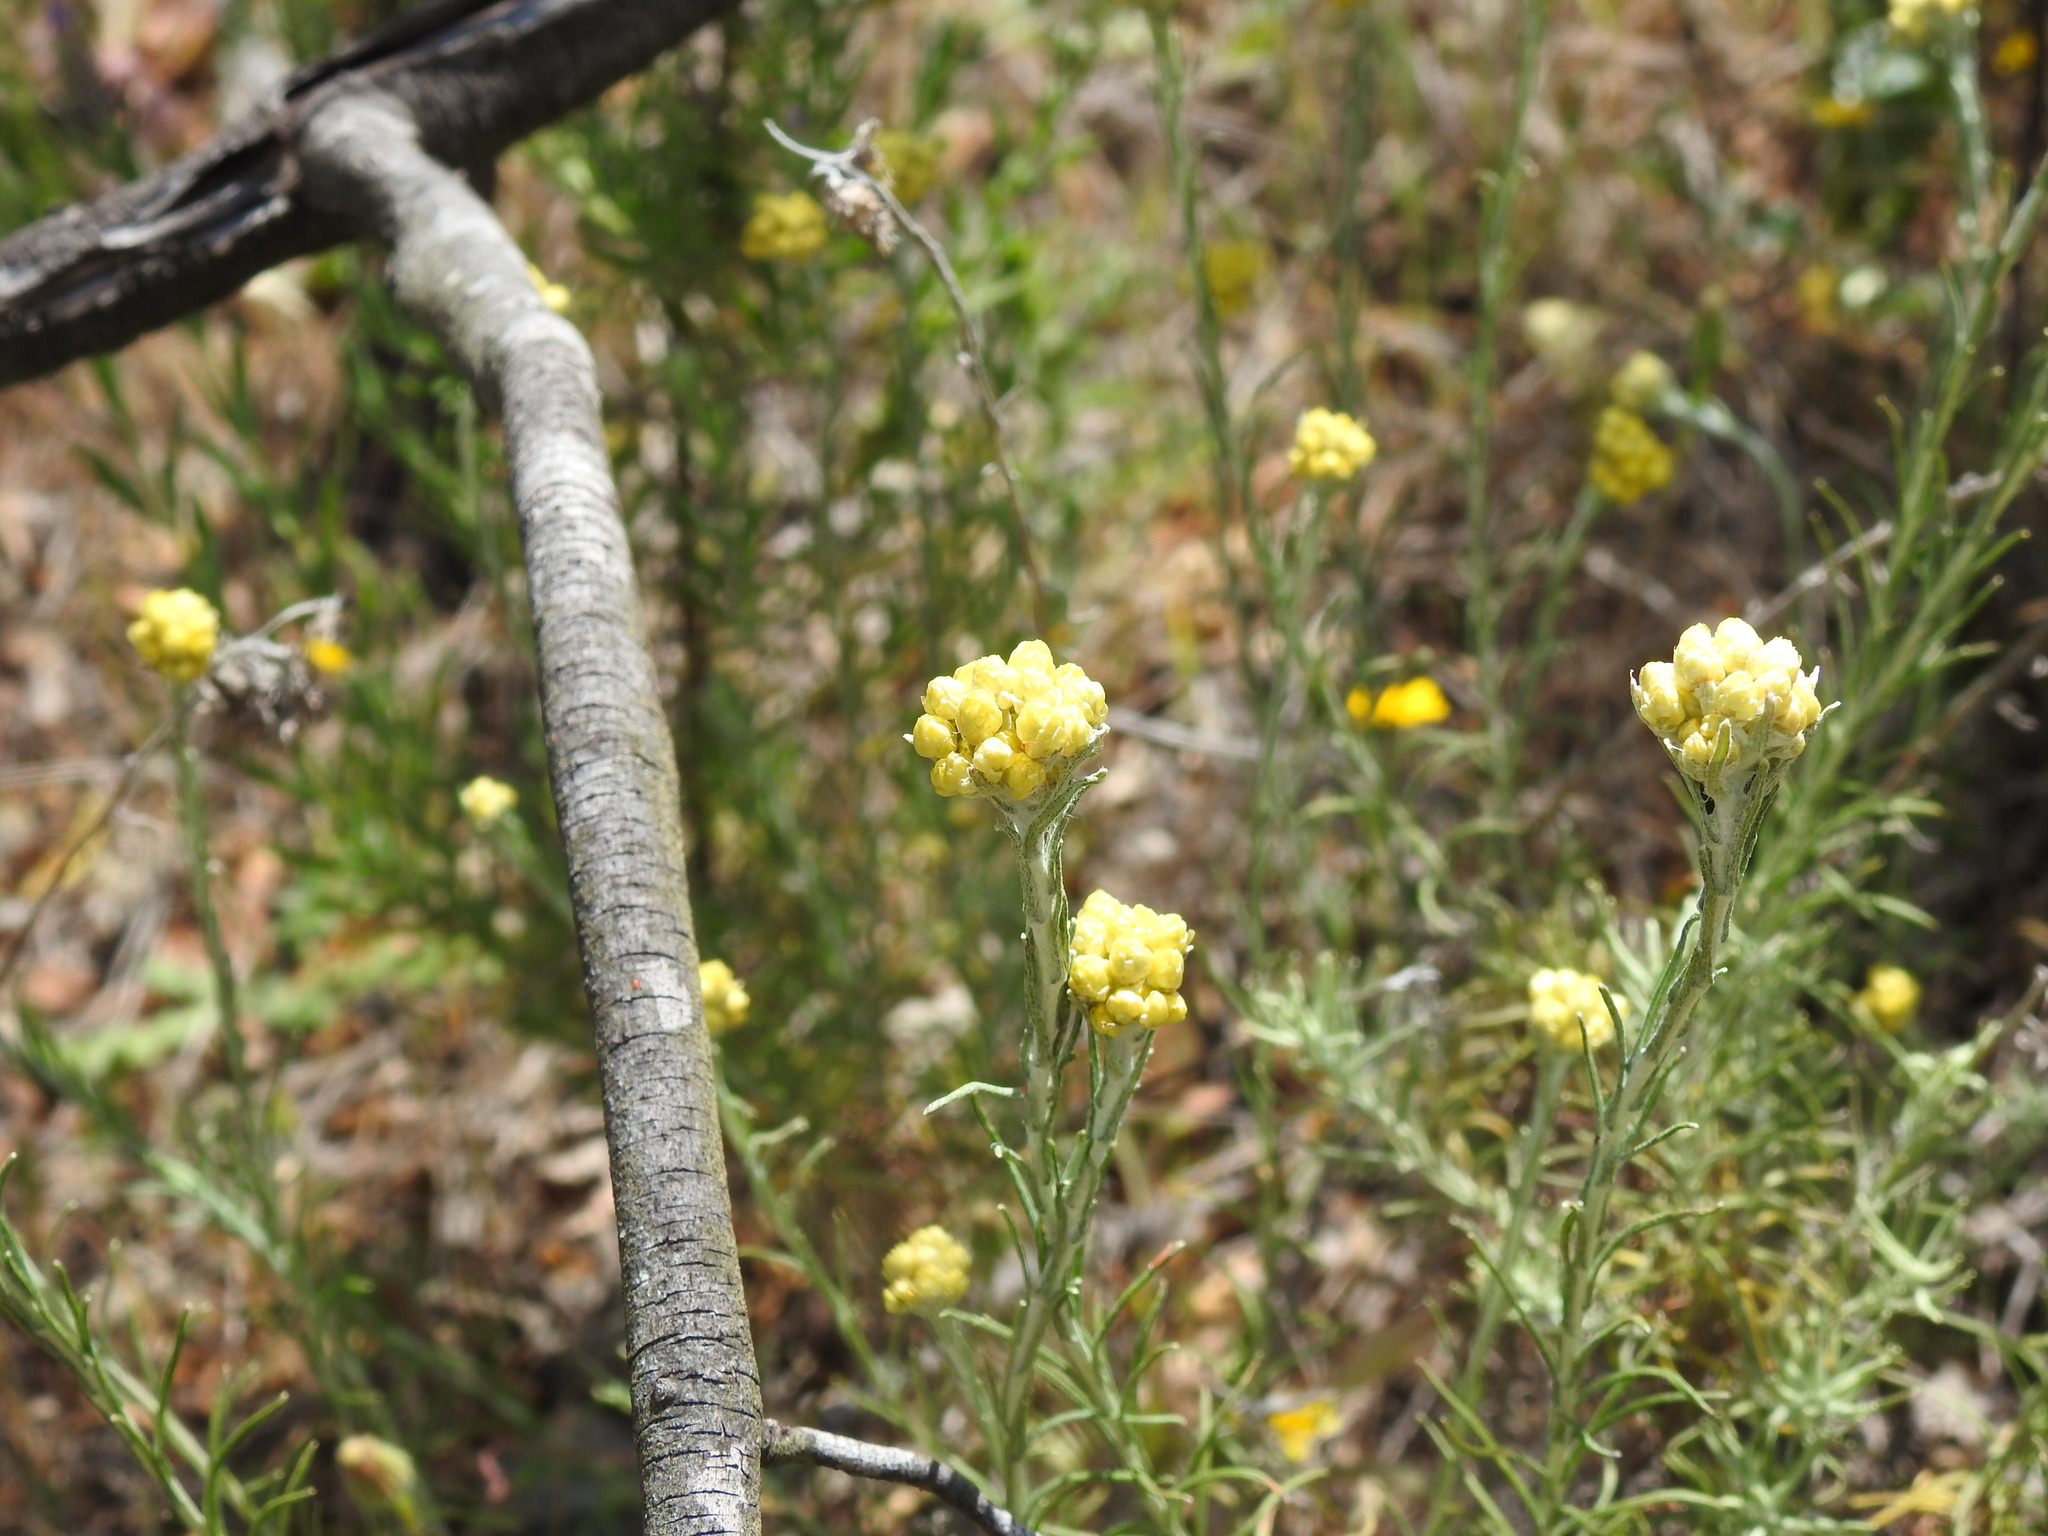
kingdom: Plantae
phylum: Tracheophyta
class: Magnoliopsida
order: Asterales
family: Asteraceae
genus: Helichrysum
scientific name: Helichrysum stoechas
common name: Goldilocks
